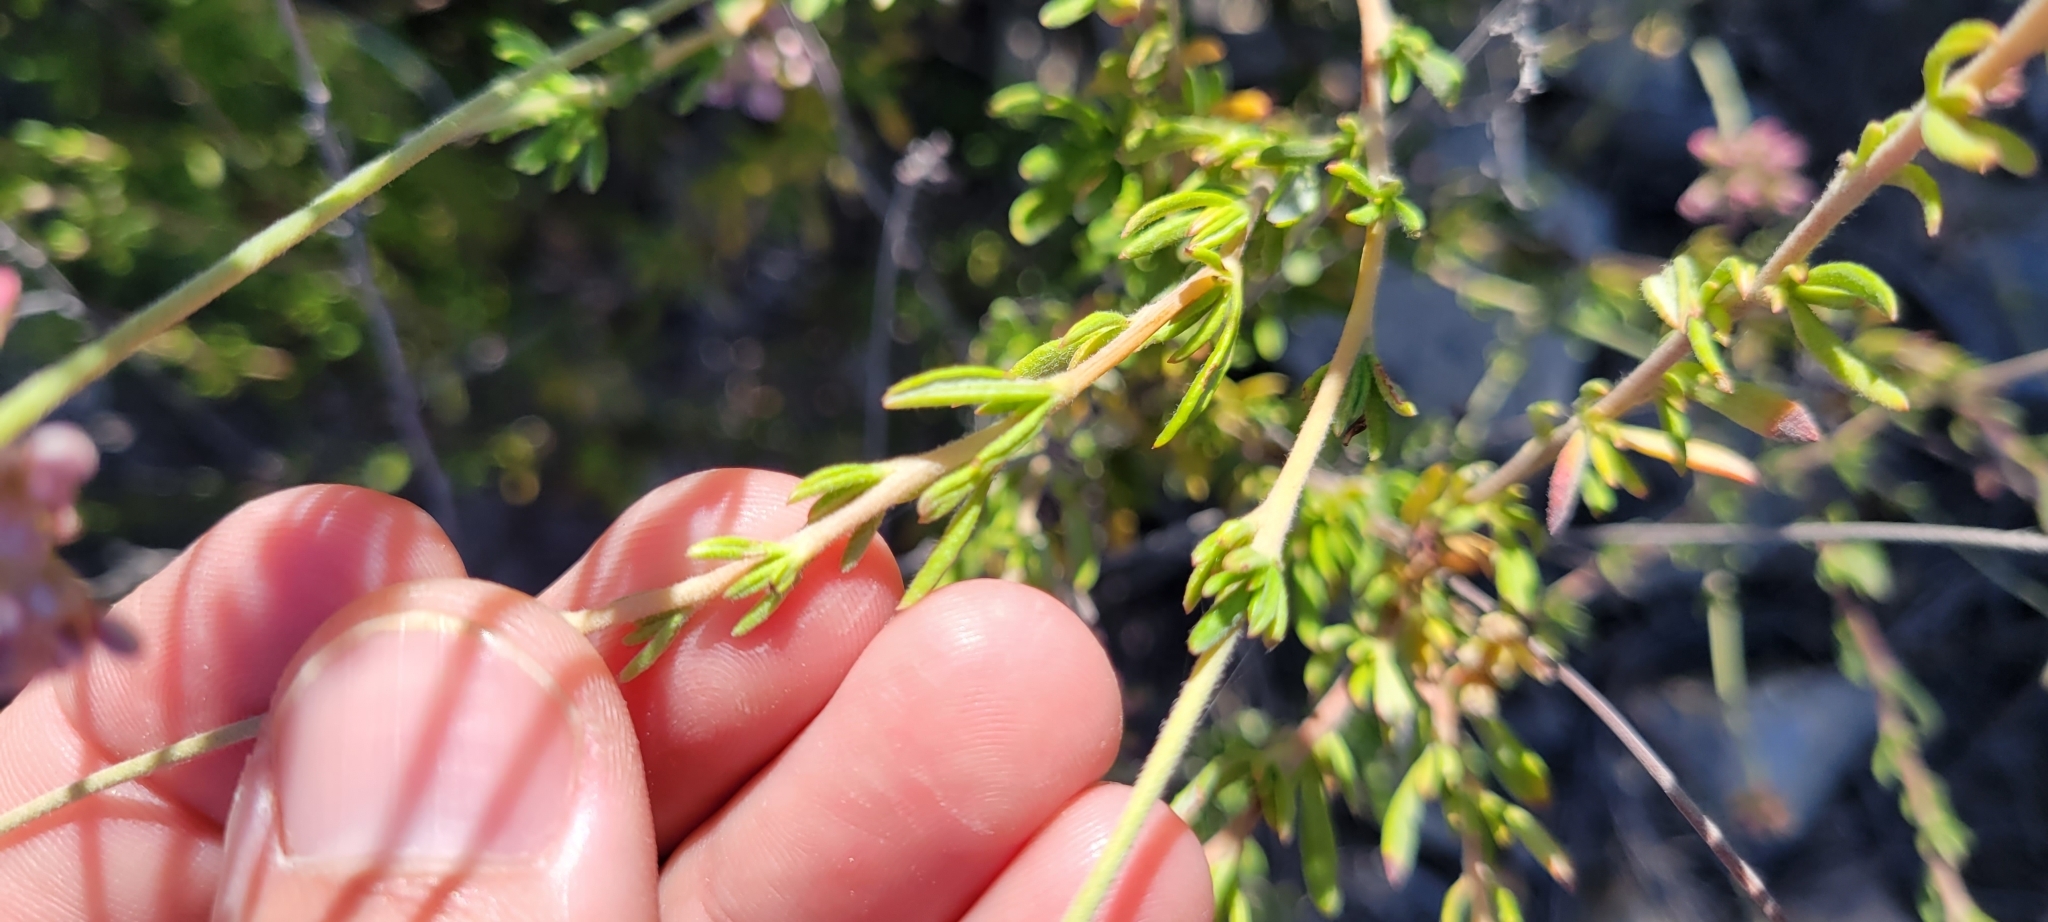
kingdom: Plantae
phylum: Tracheophyta
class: Magnoliopsida
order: Caryophyllales
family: Polygonaceae
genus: Eriogonum
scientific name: Eriogonum fasciculatum
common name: California wild buckwheat
